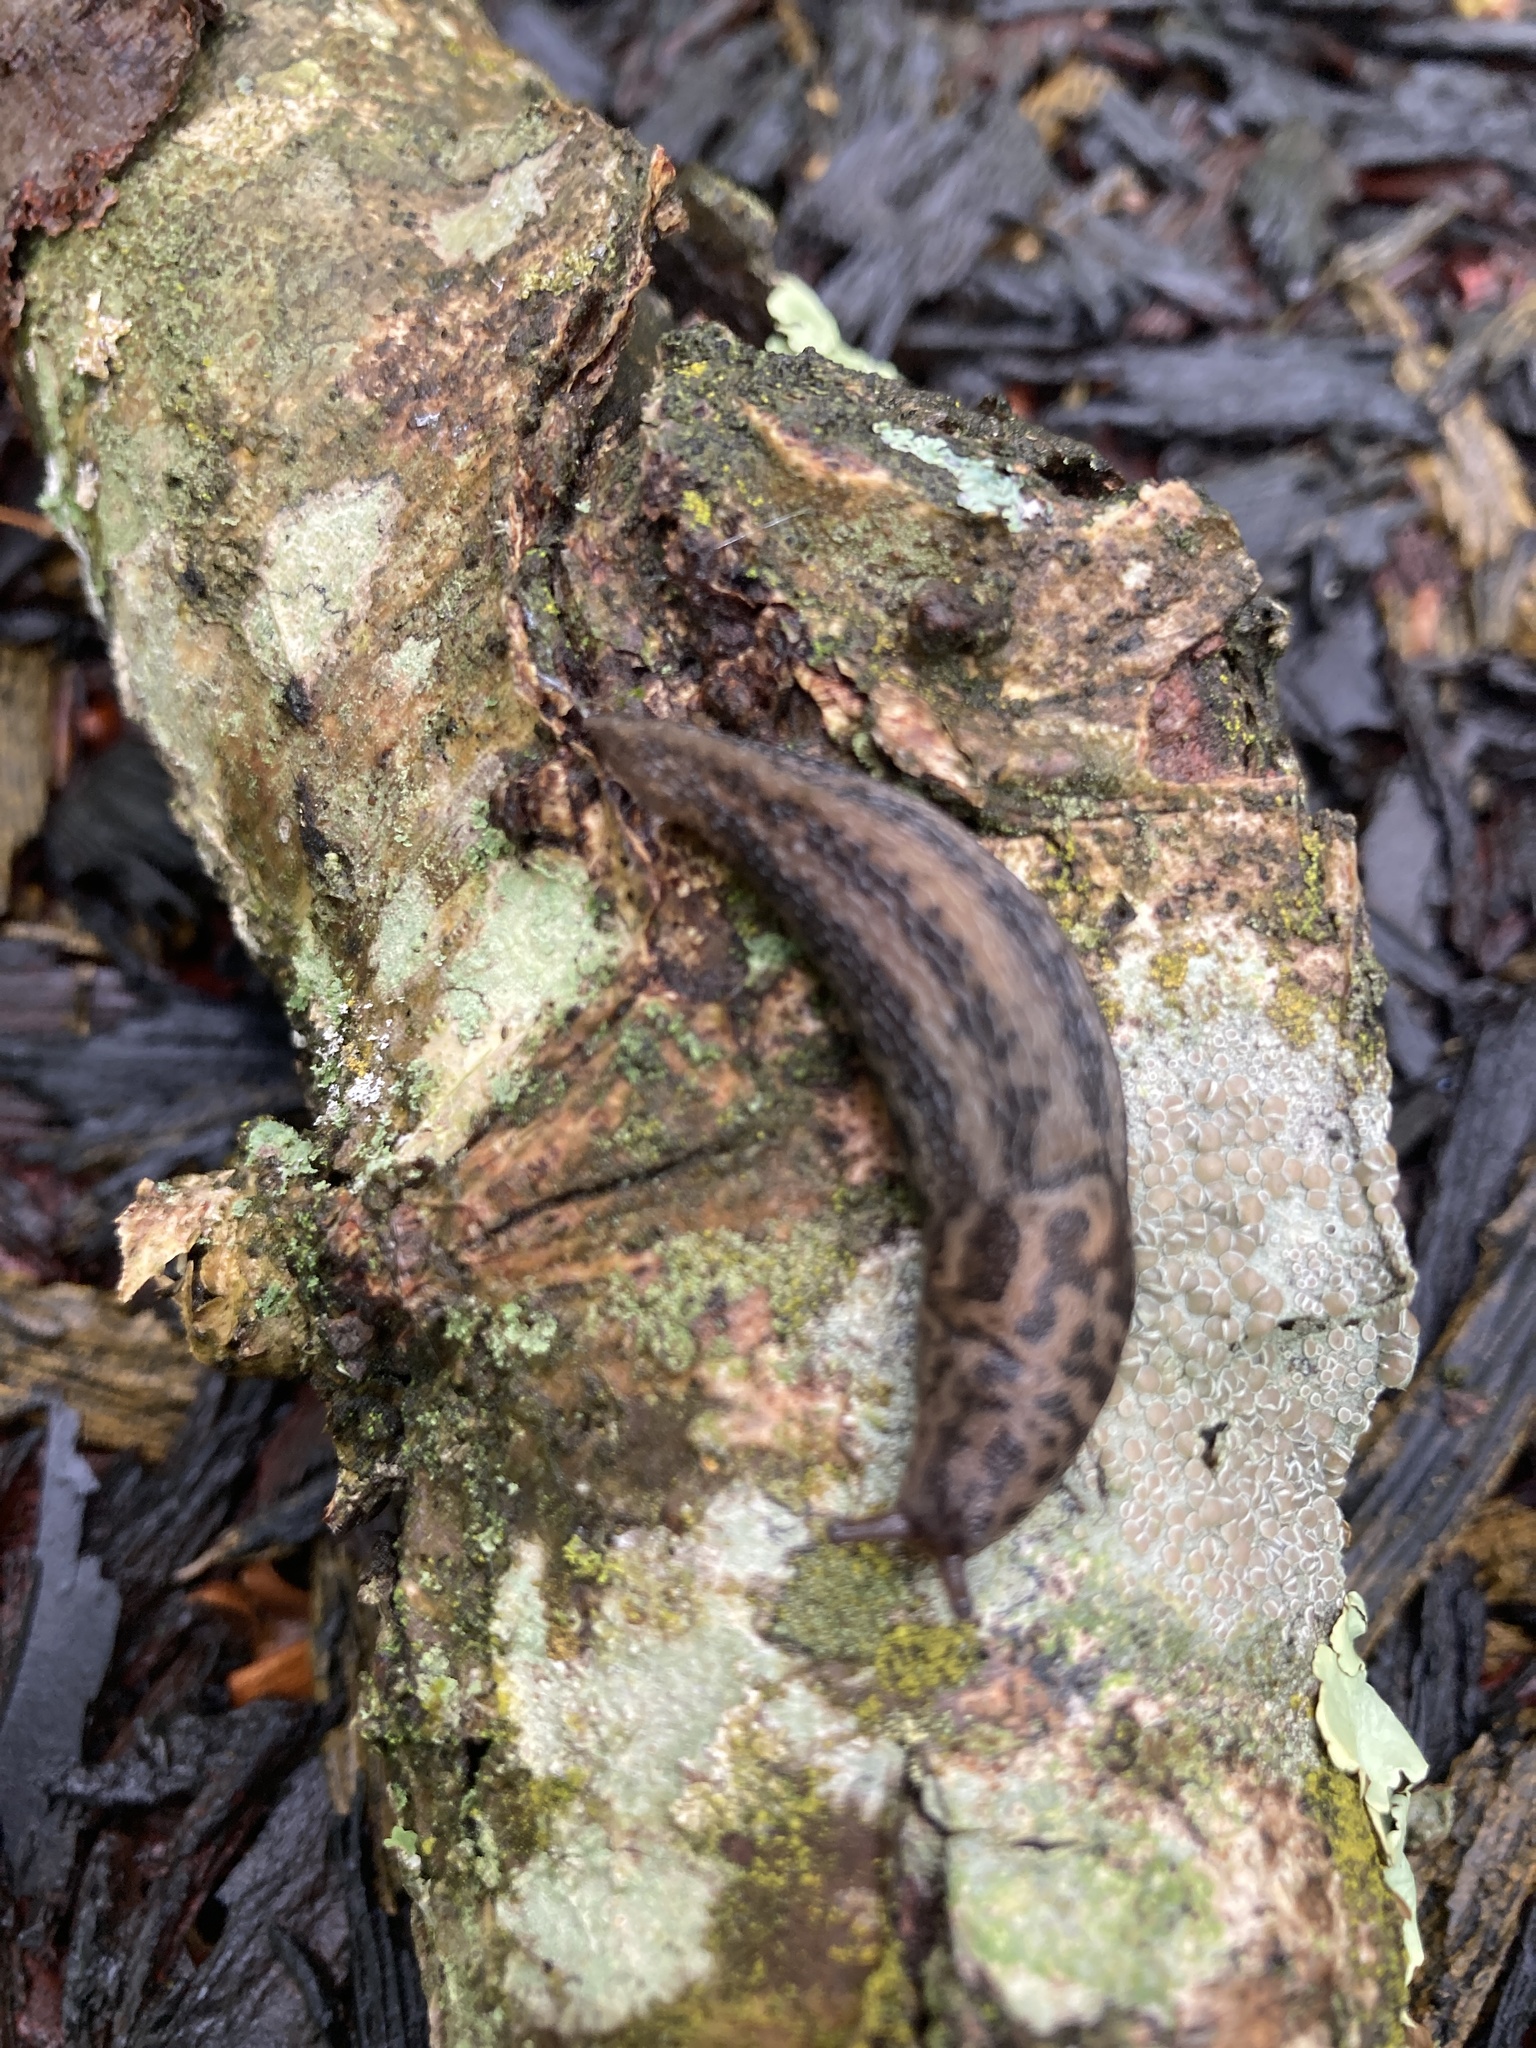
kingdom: Animalia
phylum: Mollusca
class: Gastropoda
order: Stylommatophora
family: Limacidae
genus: Limax
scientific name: Limax maximus
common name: Great grey slug
